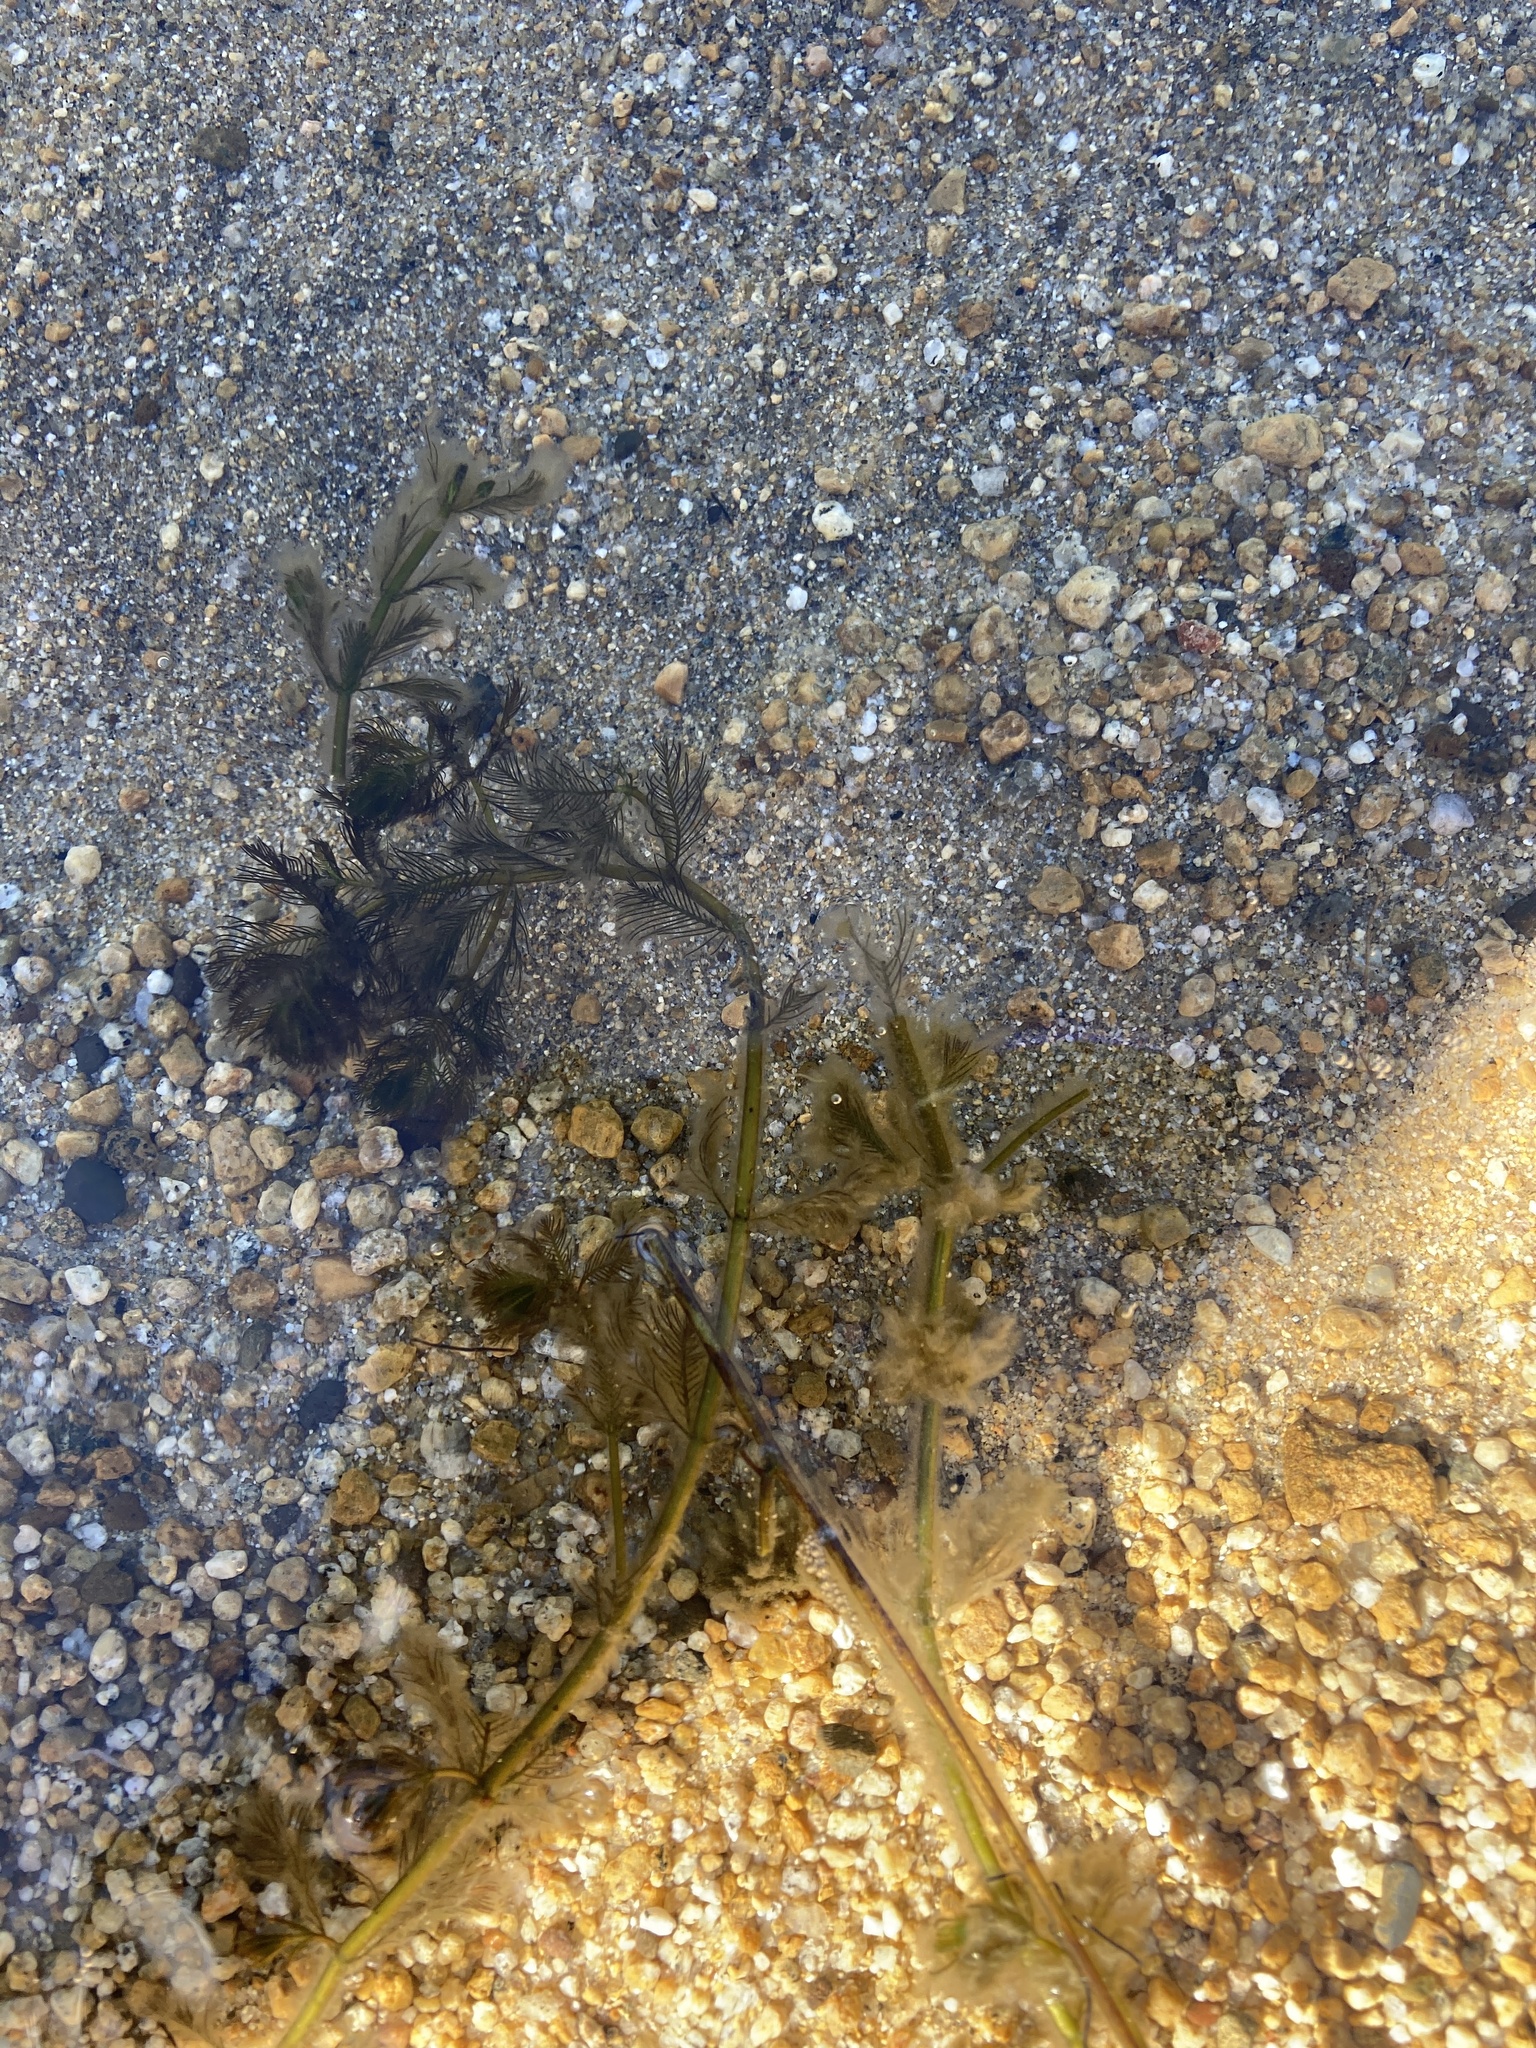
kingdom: Plantae
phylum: Tracheophyta
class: Magnoliopsida
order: Saxifragales
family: Haloragaceae
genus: Myriophyllum
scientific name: Myriophyllum spicatum
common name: Spiked water-milfoil
